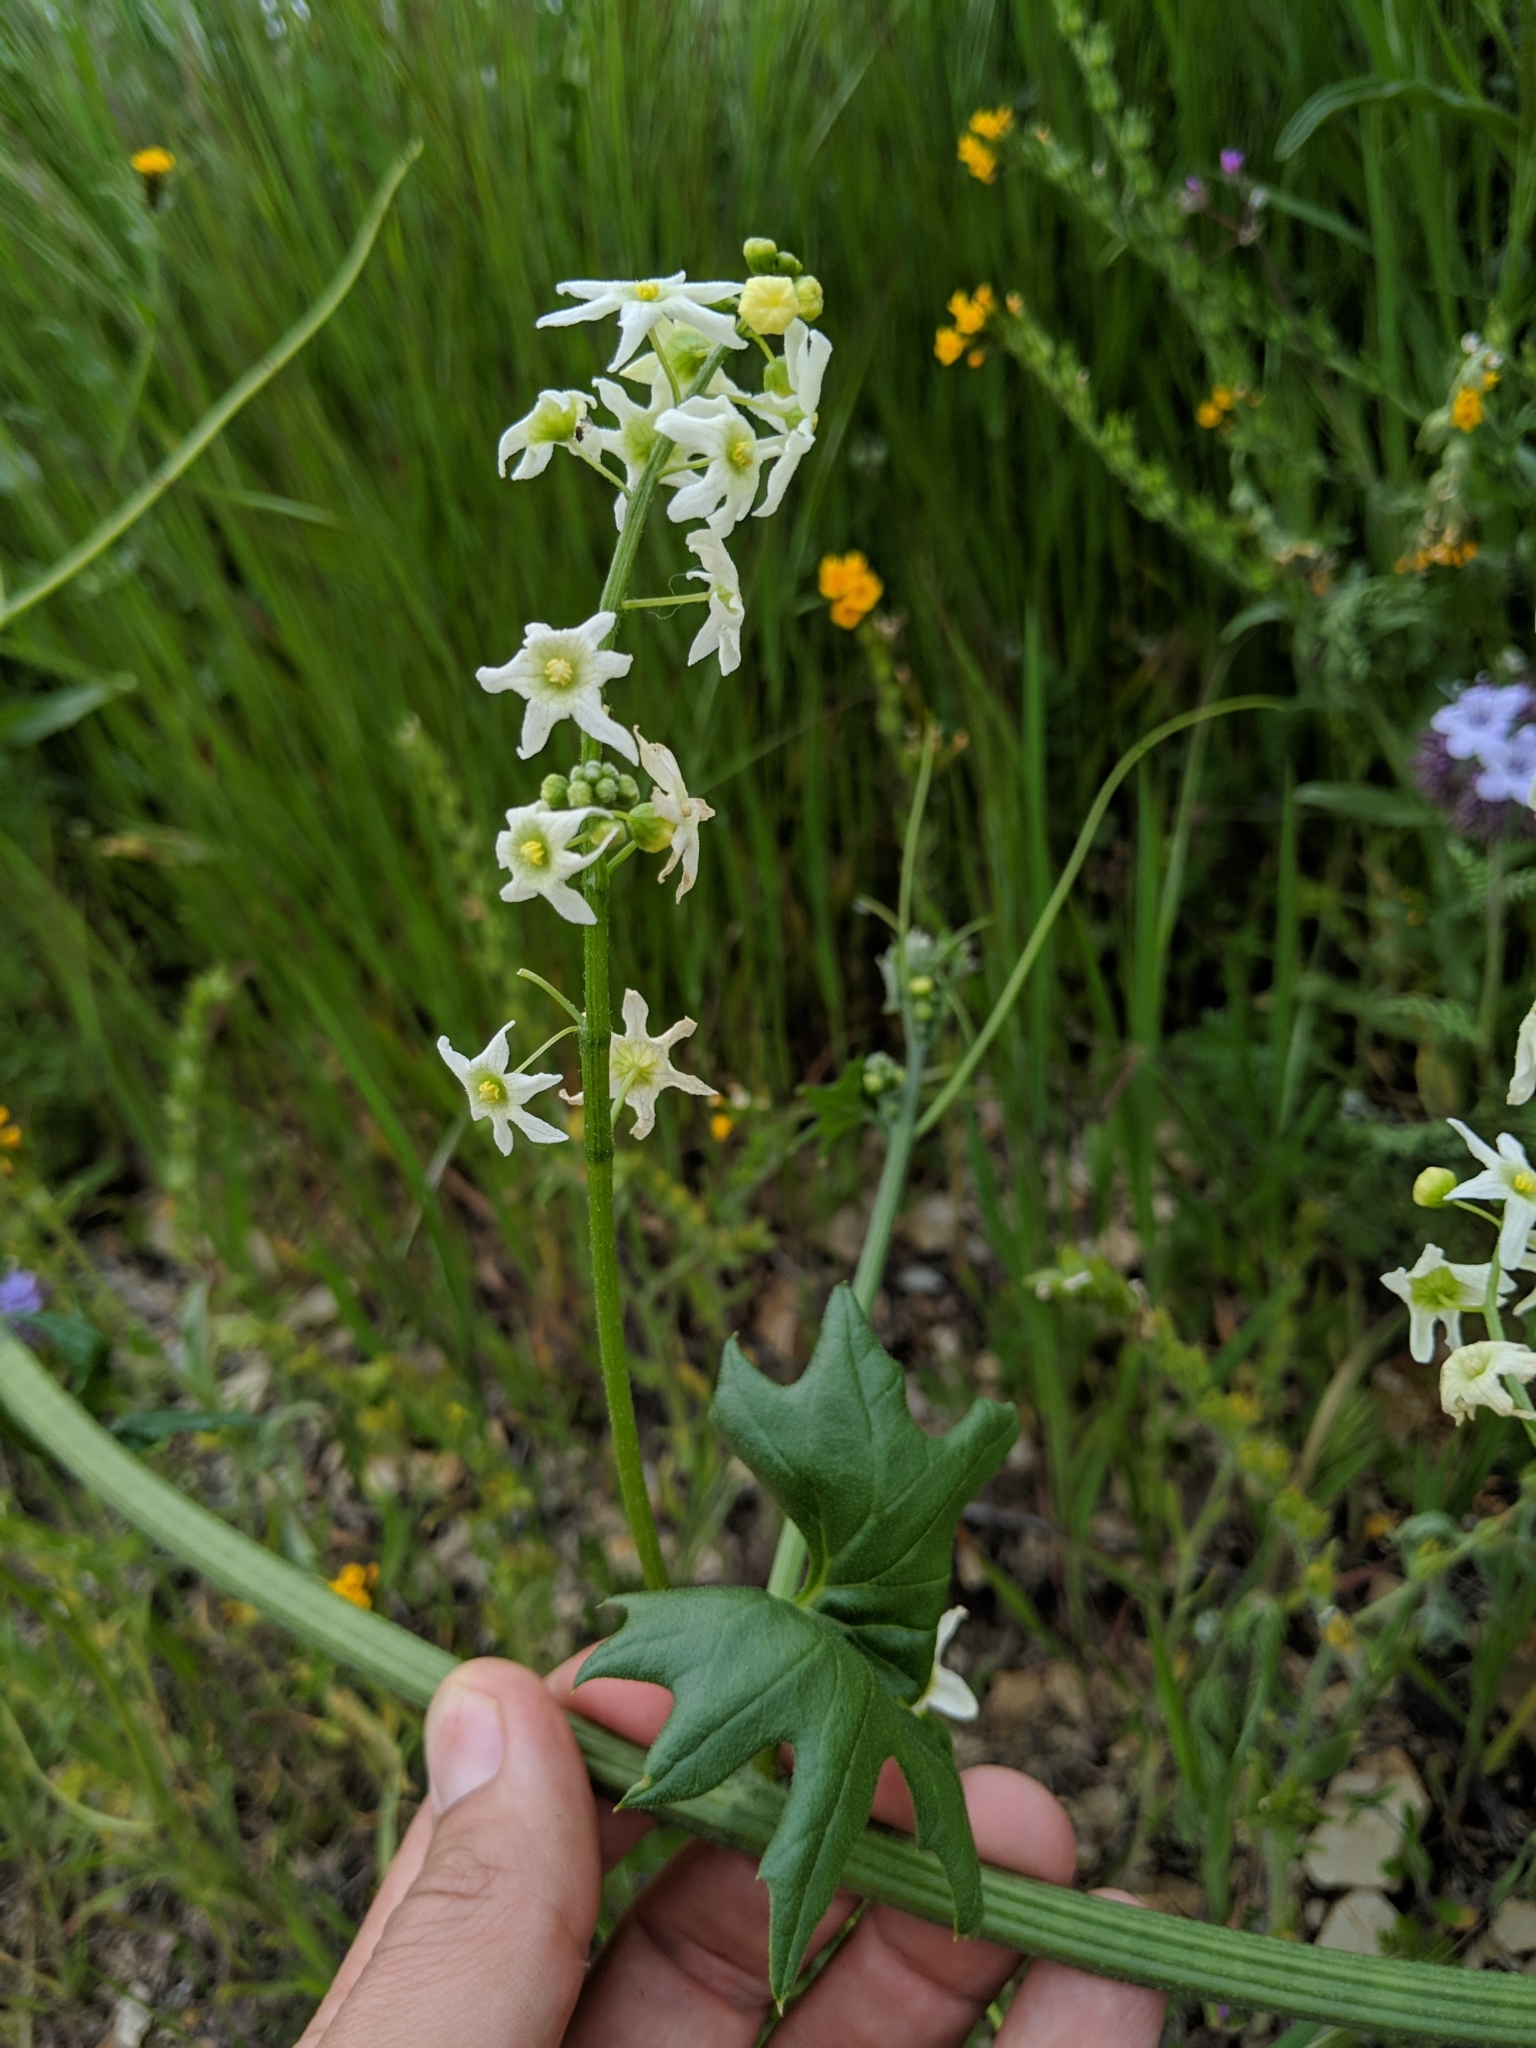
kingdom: Plantae
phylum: Tracheophyta
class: Magnoliopsida
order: Cucurbitales
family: Cucurbitaceae
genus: Marah
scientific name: Marah fabacea
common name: California manroot
